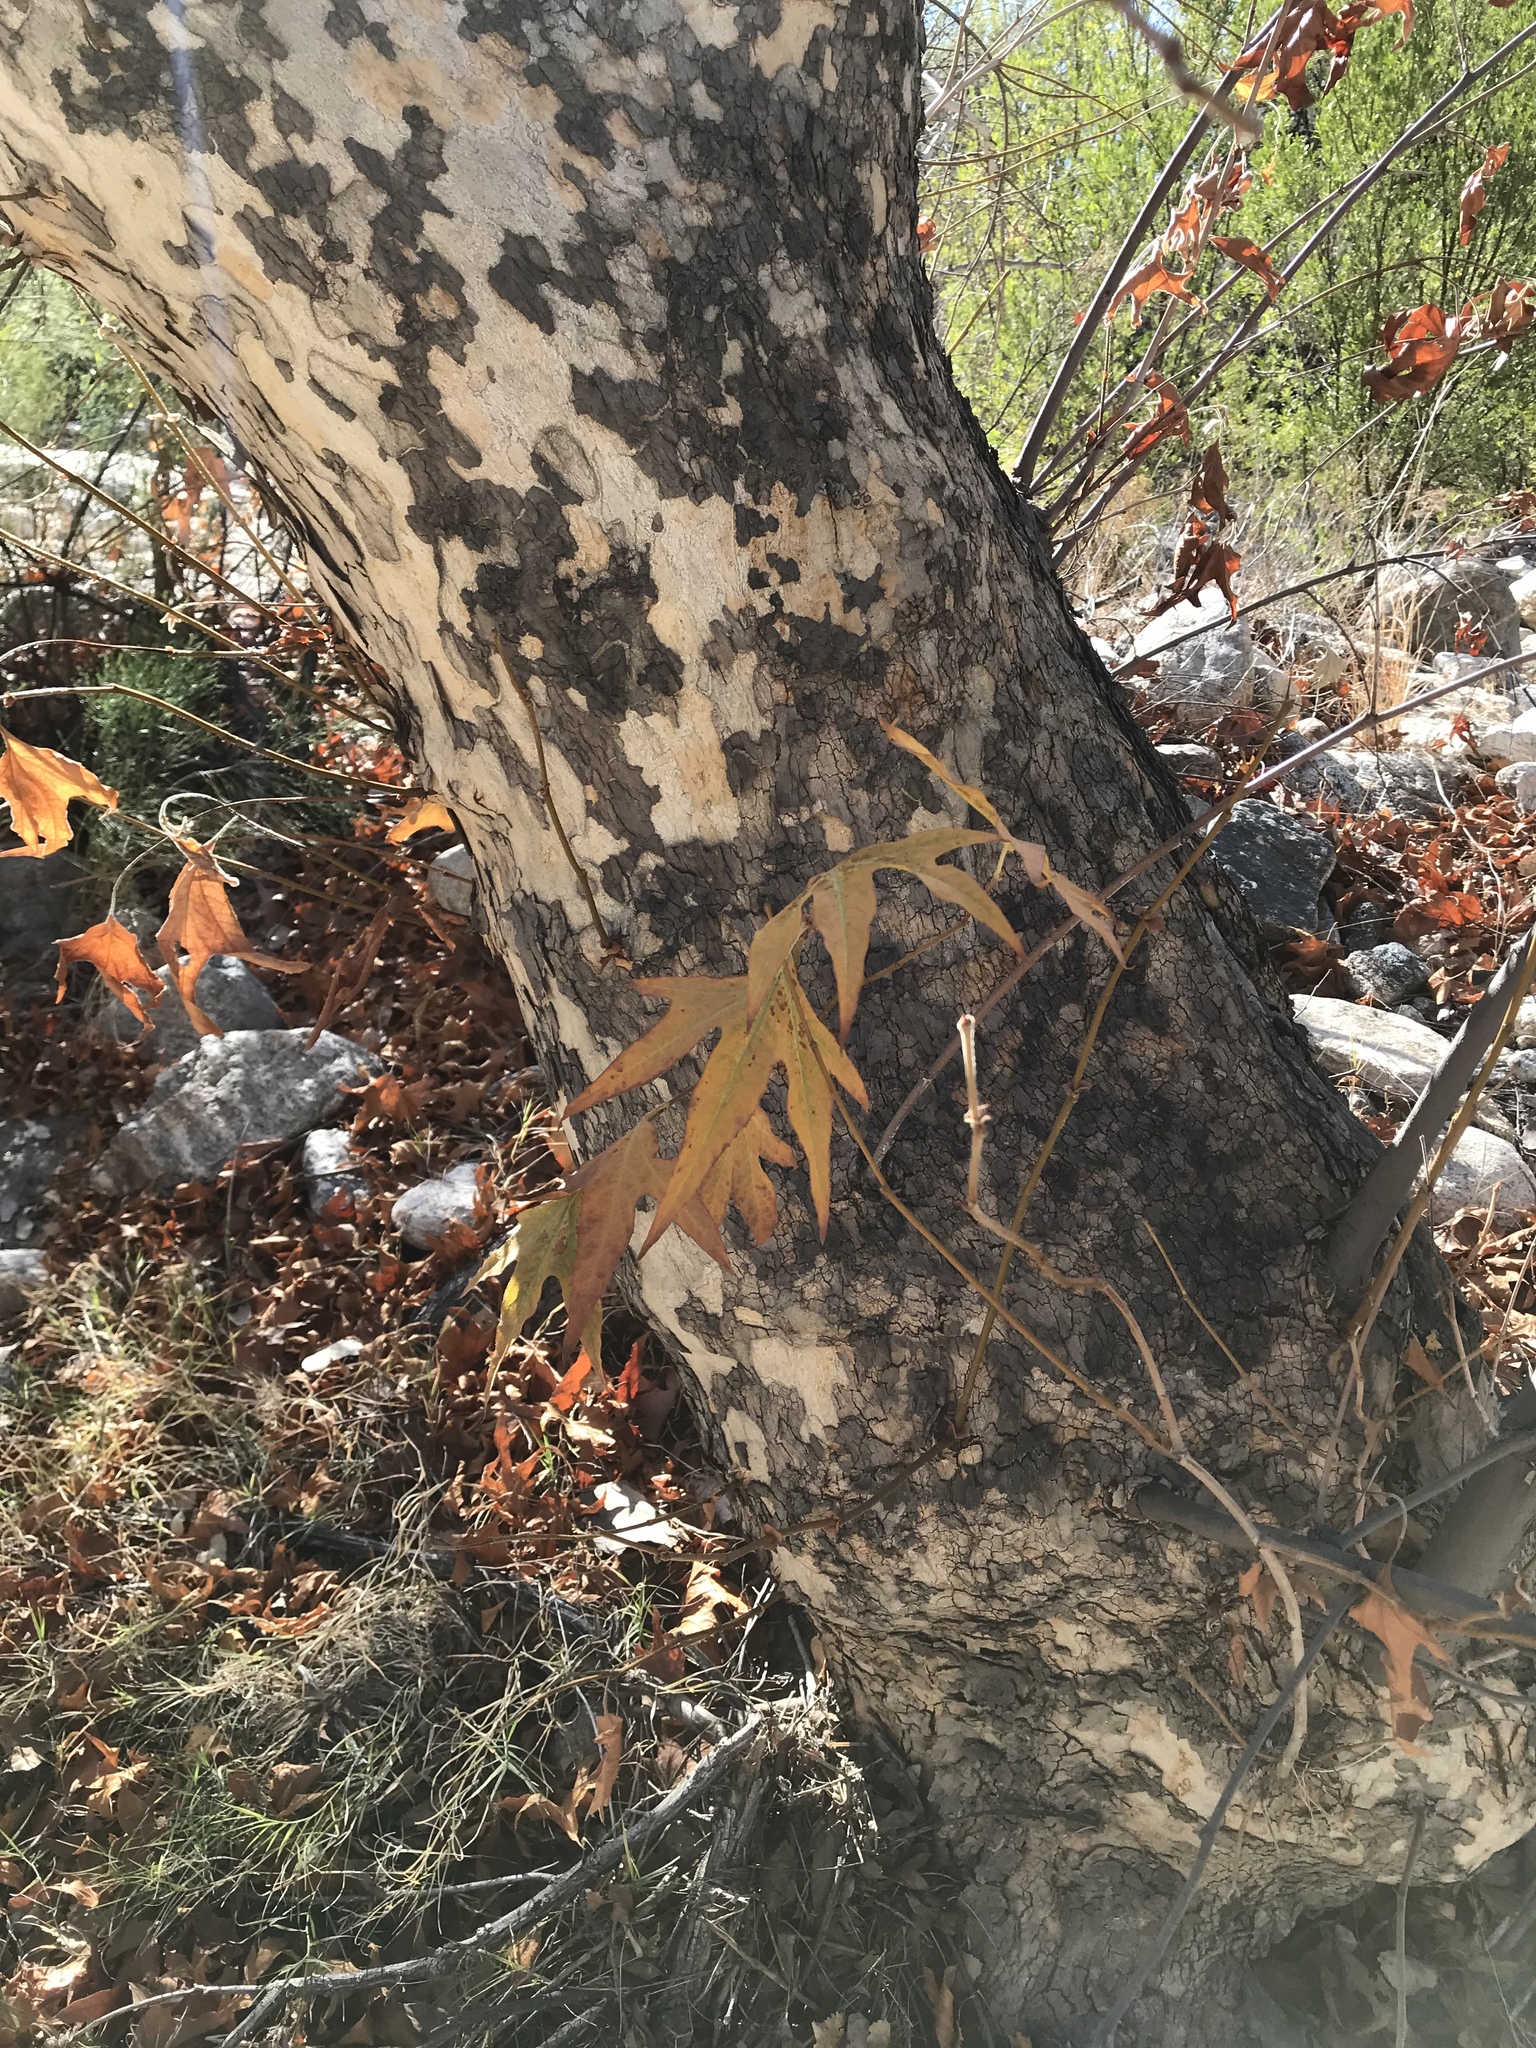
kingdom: Plantae
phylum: Tracheophyta
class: Magnoliopsida
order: Proteales
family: Platanaceae
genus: Platanus
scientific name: Platanus wrightii
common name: Arizona sycamore
